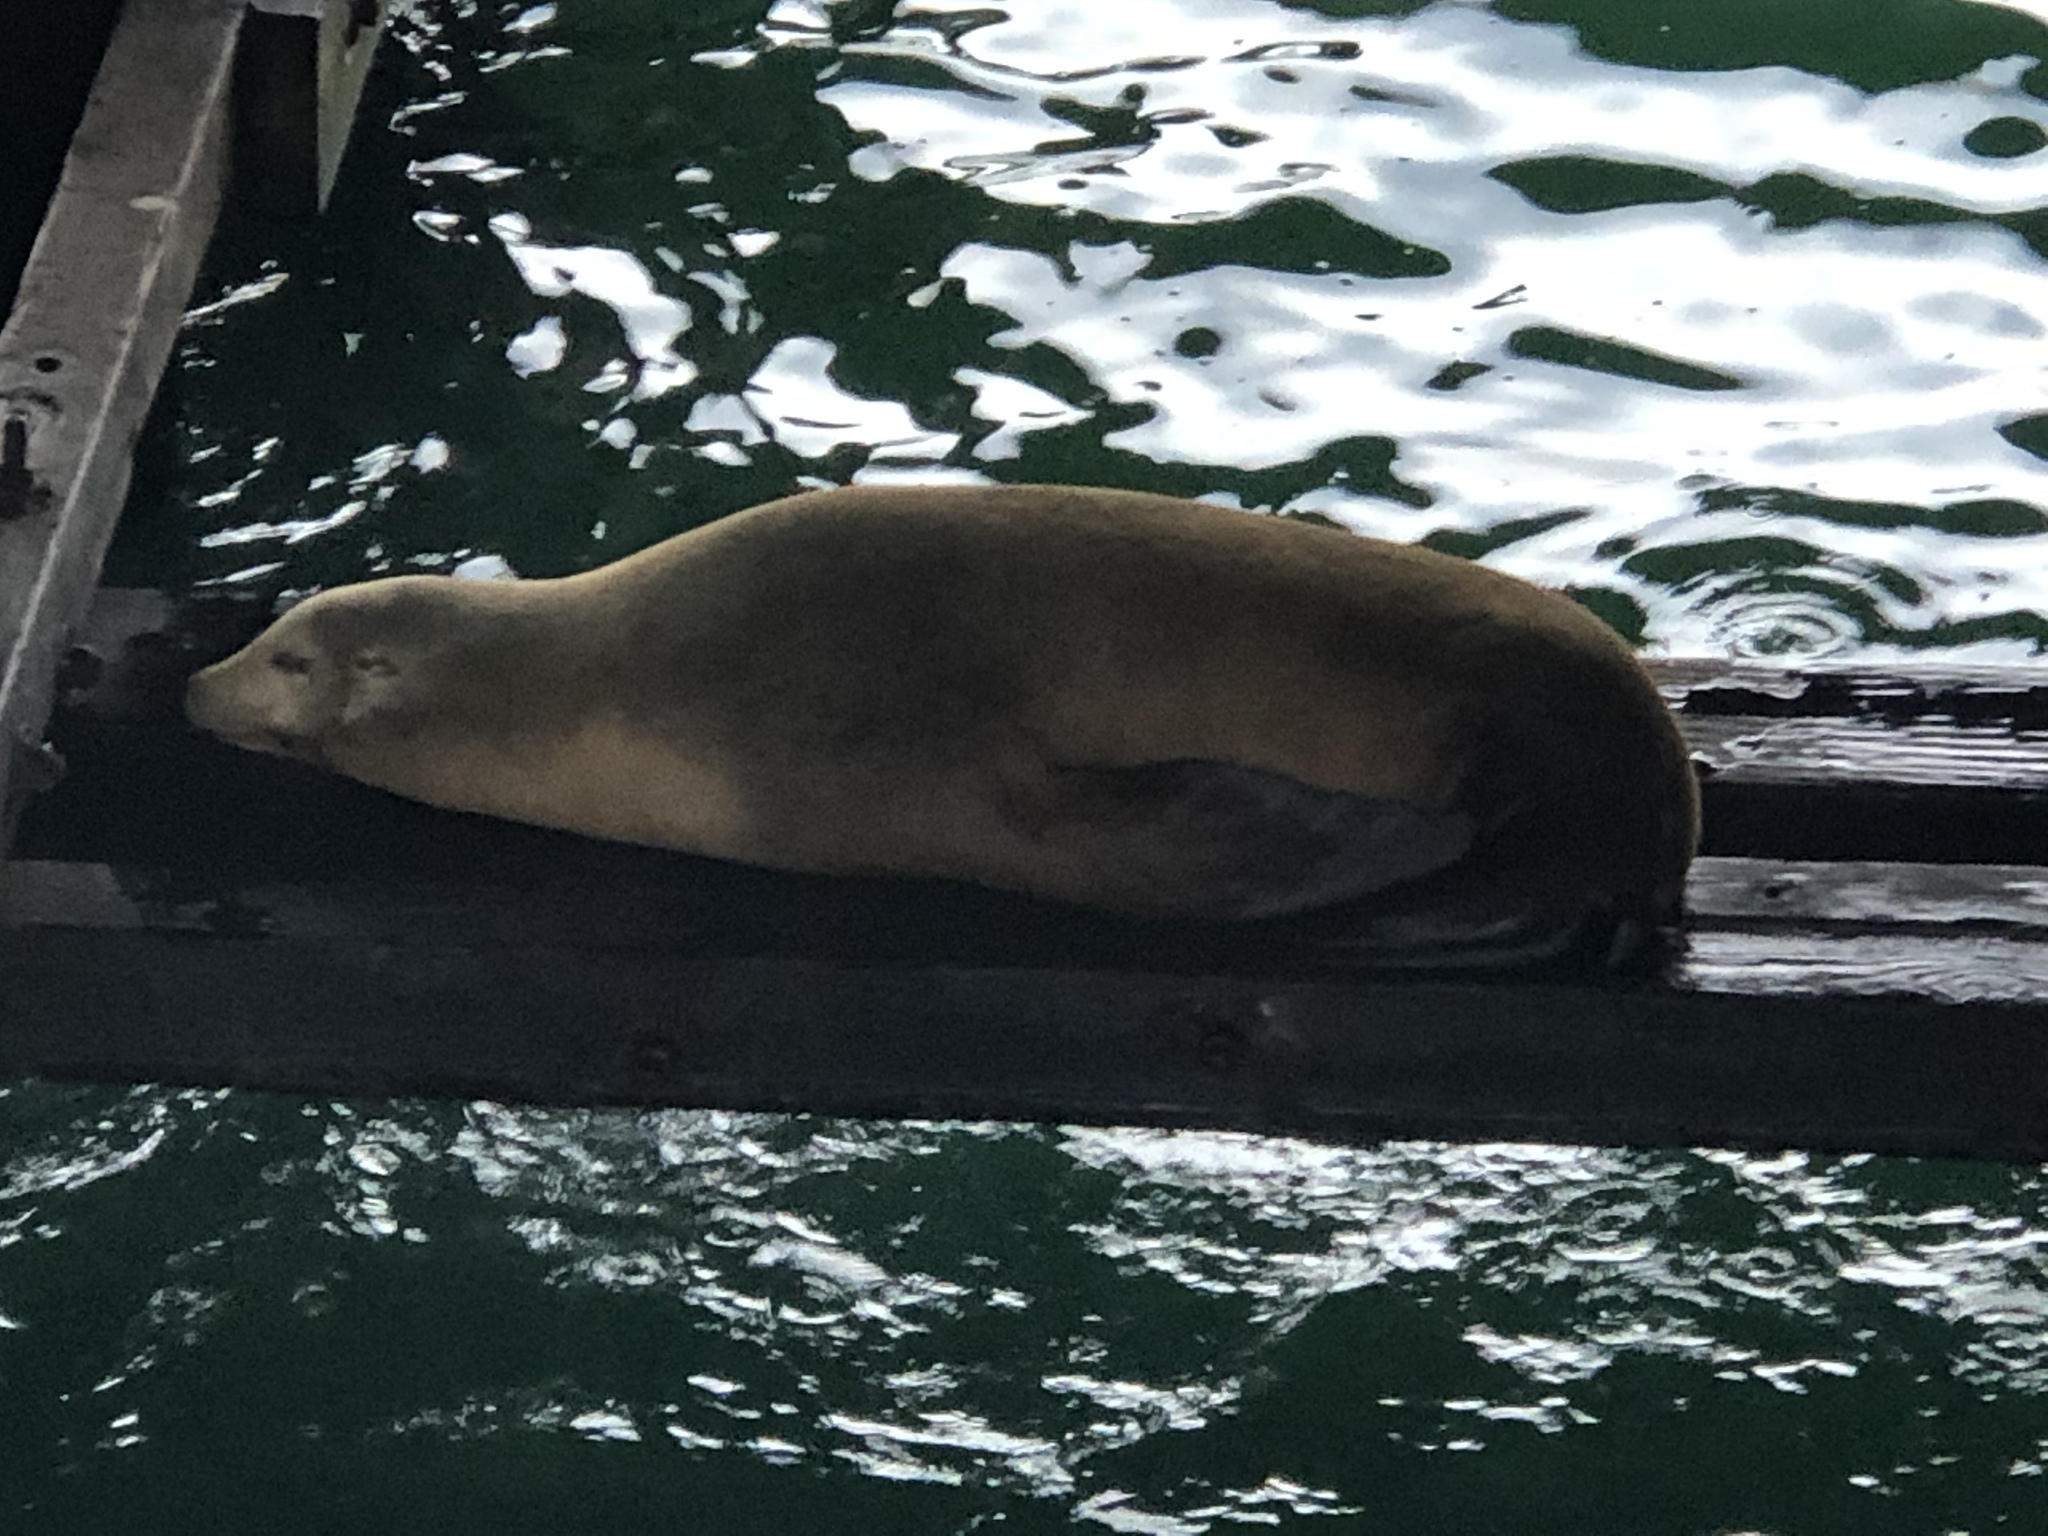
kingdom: Animalia
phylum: Chordata
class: Mammalia
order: Carnivora
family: Otariidae
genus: Zalophus
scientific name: Zalophus californianus
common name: California sea lion
